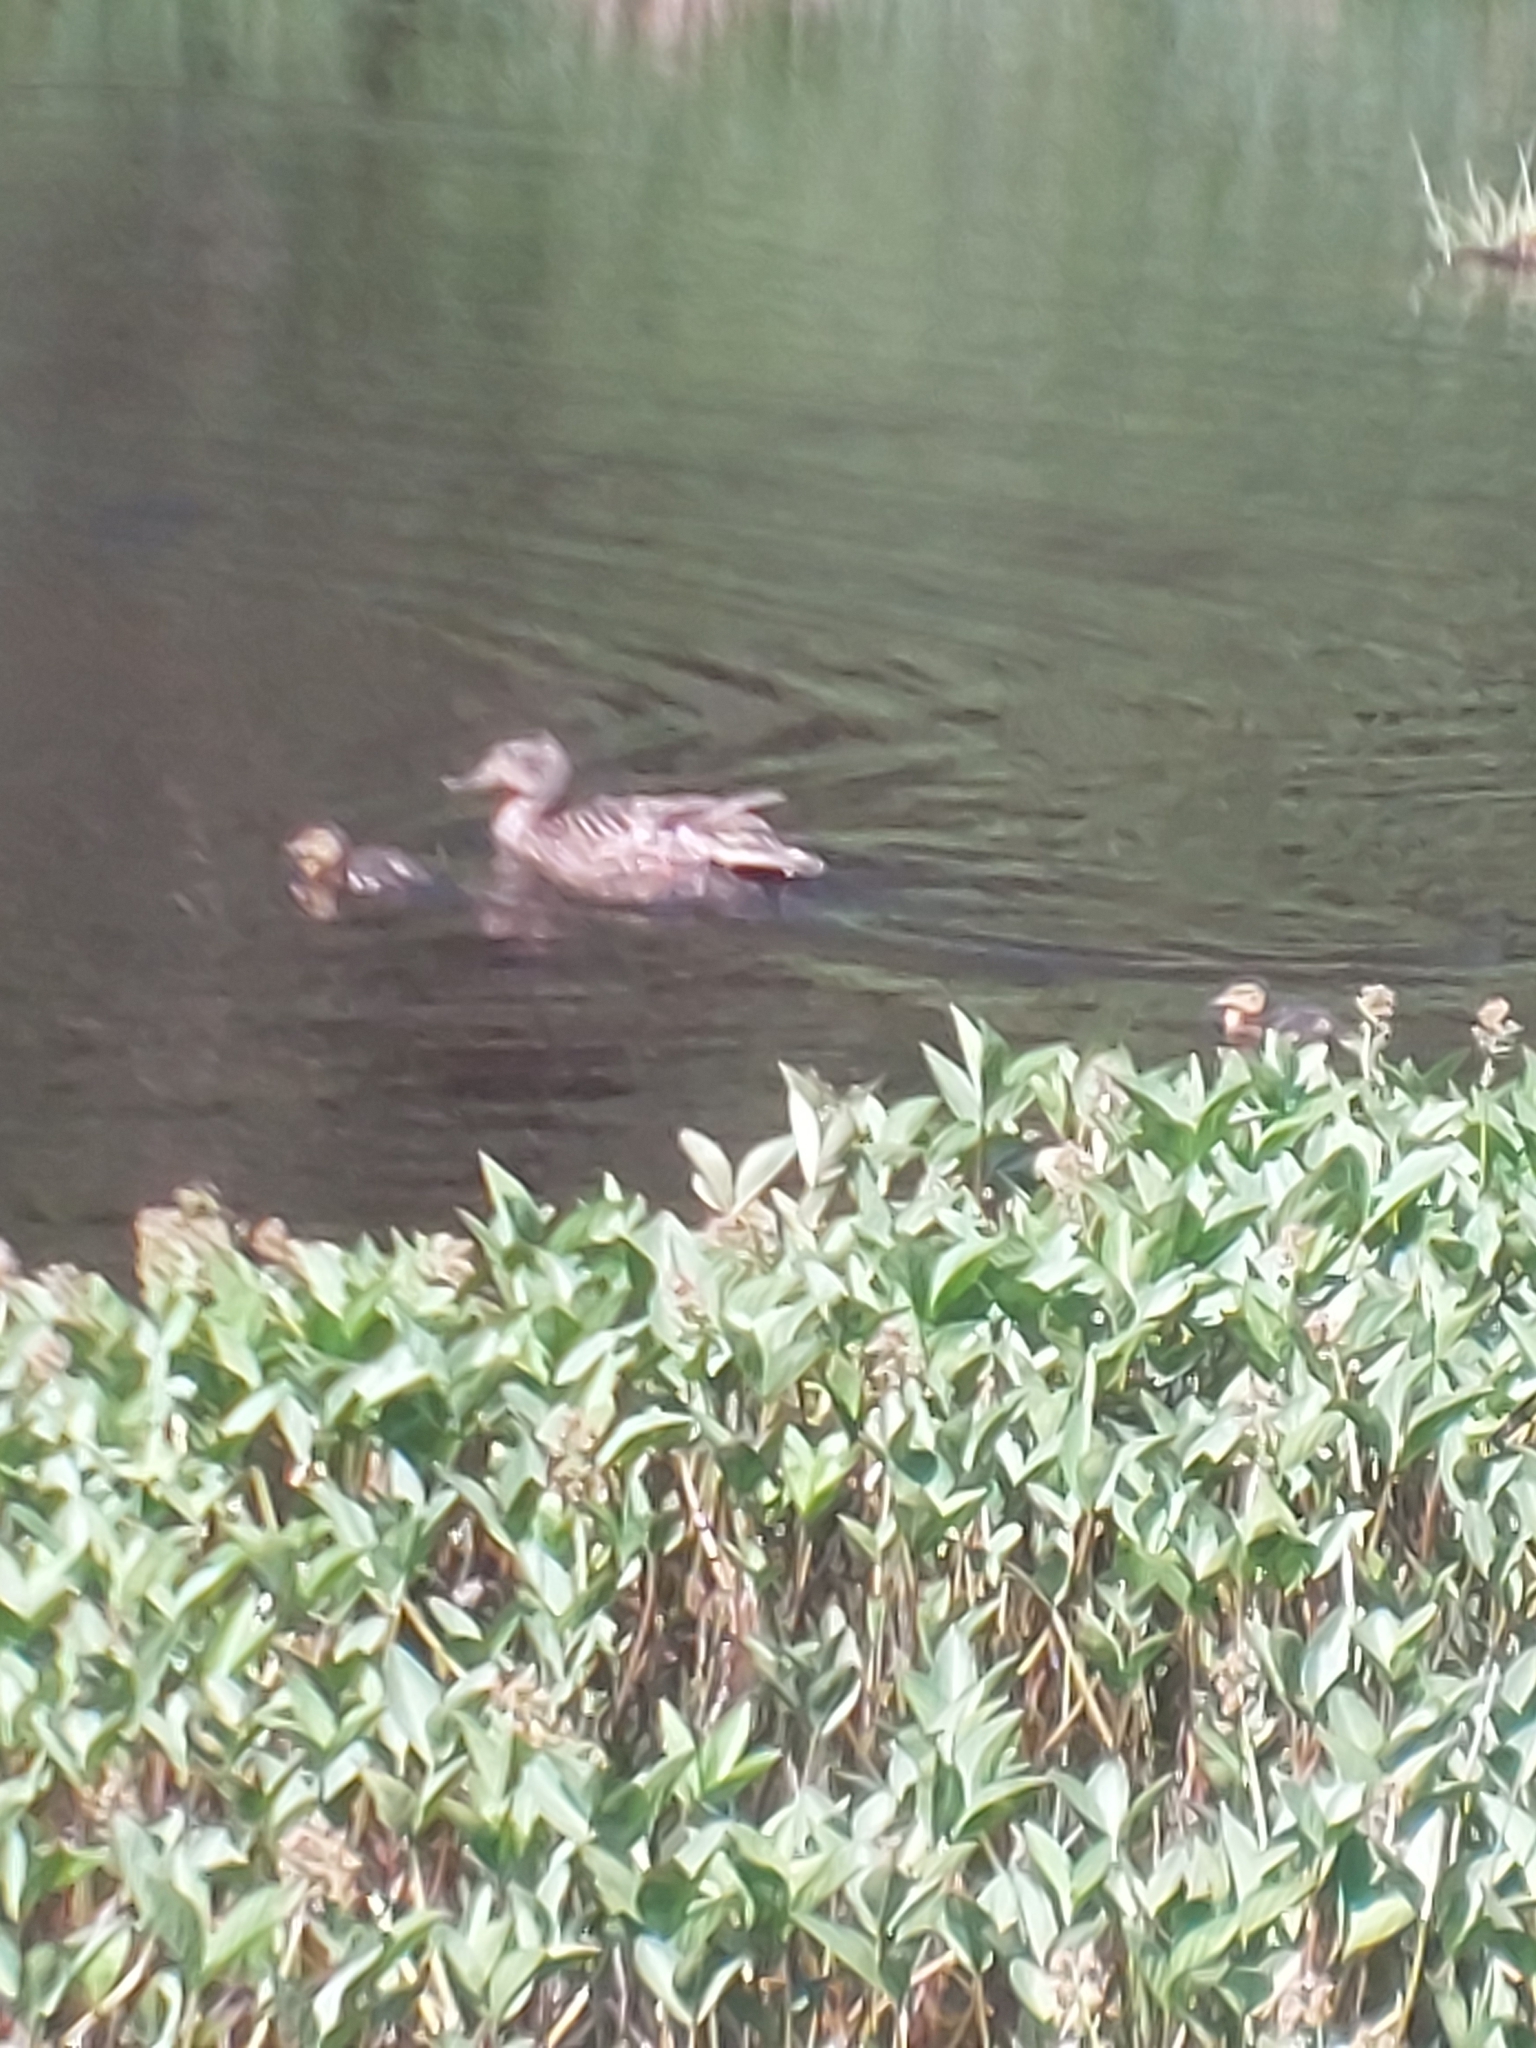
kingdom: Animalia
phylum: Chordata
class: Aves
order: Anseriformes
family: Anatidae
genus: Anas
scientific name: Anas platyrhynchos
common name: Mallard
